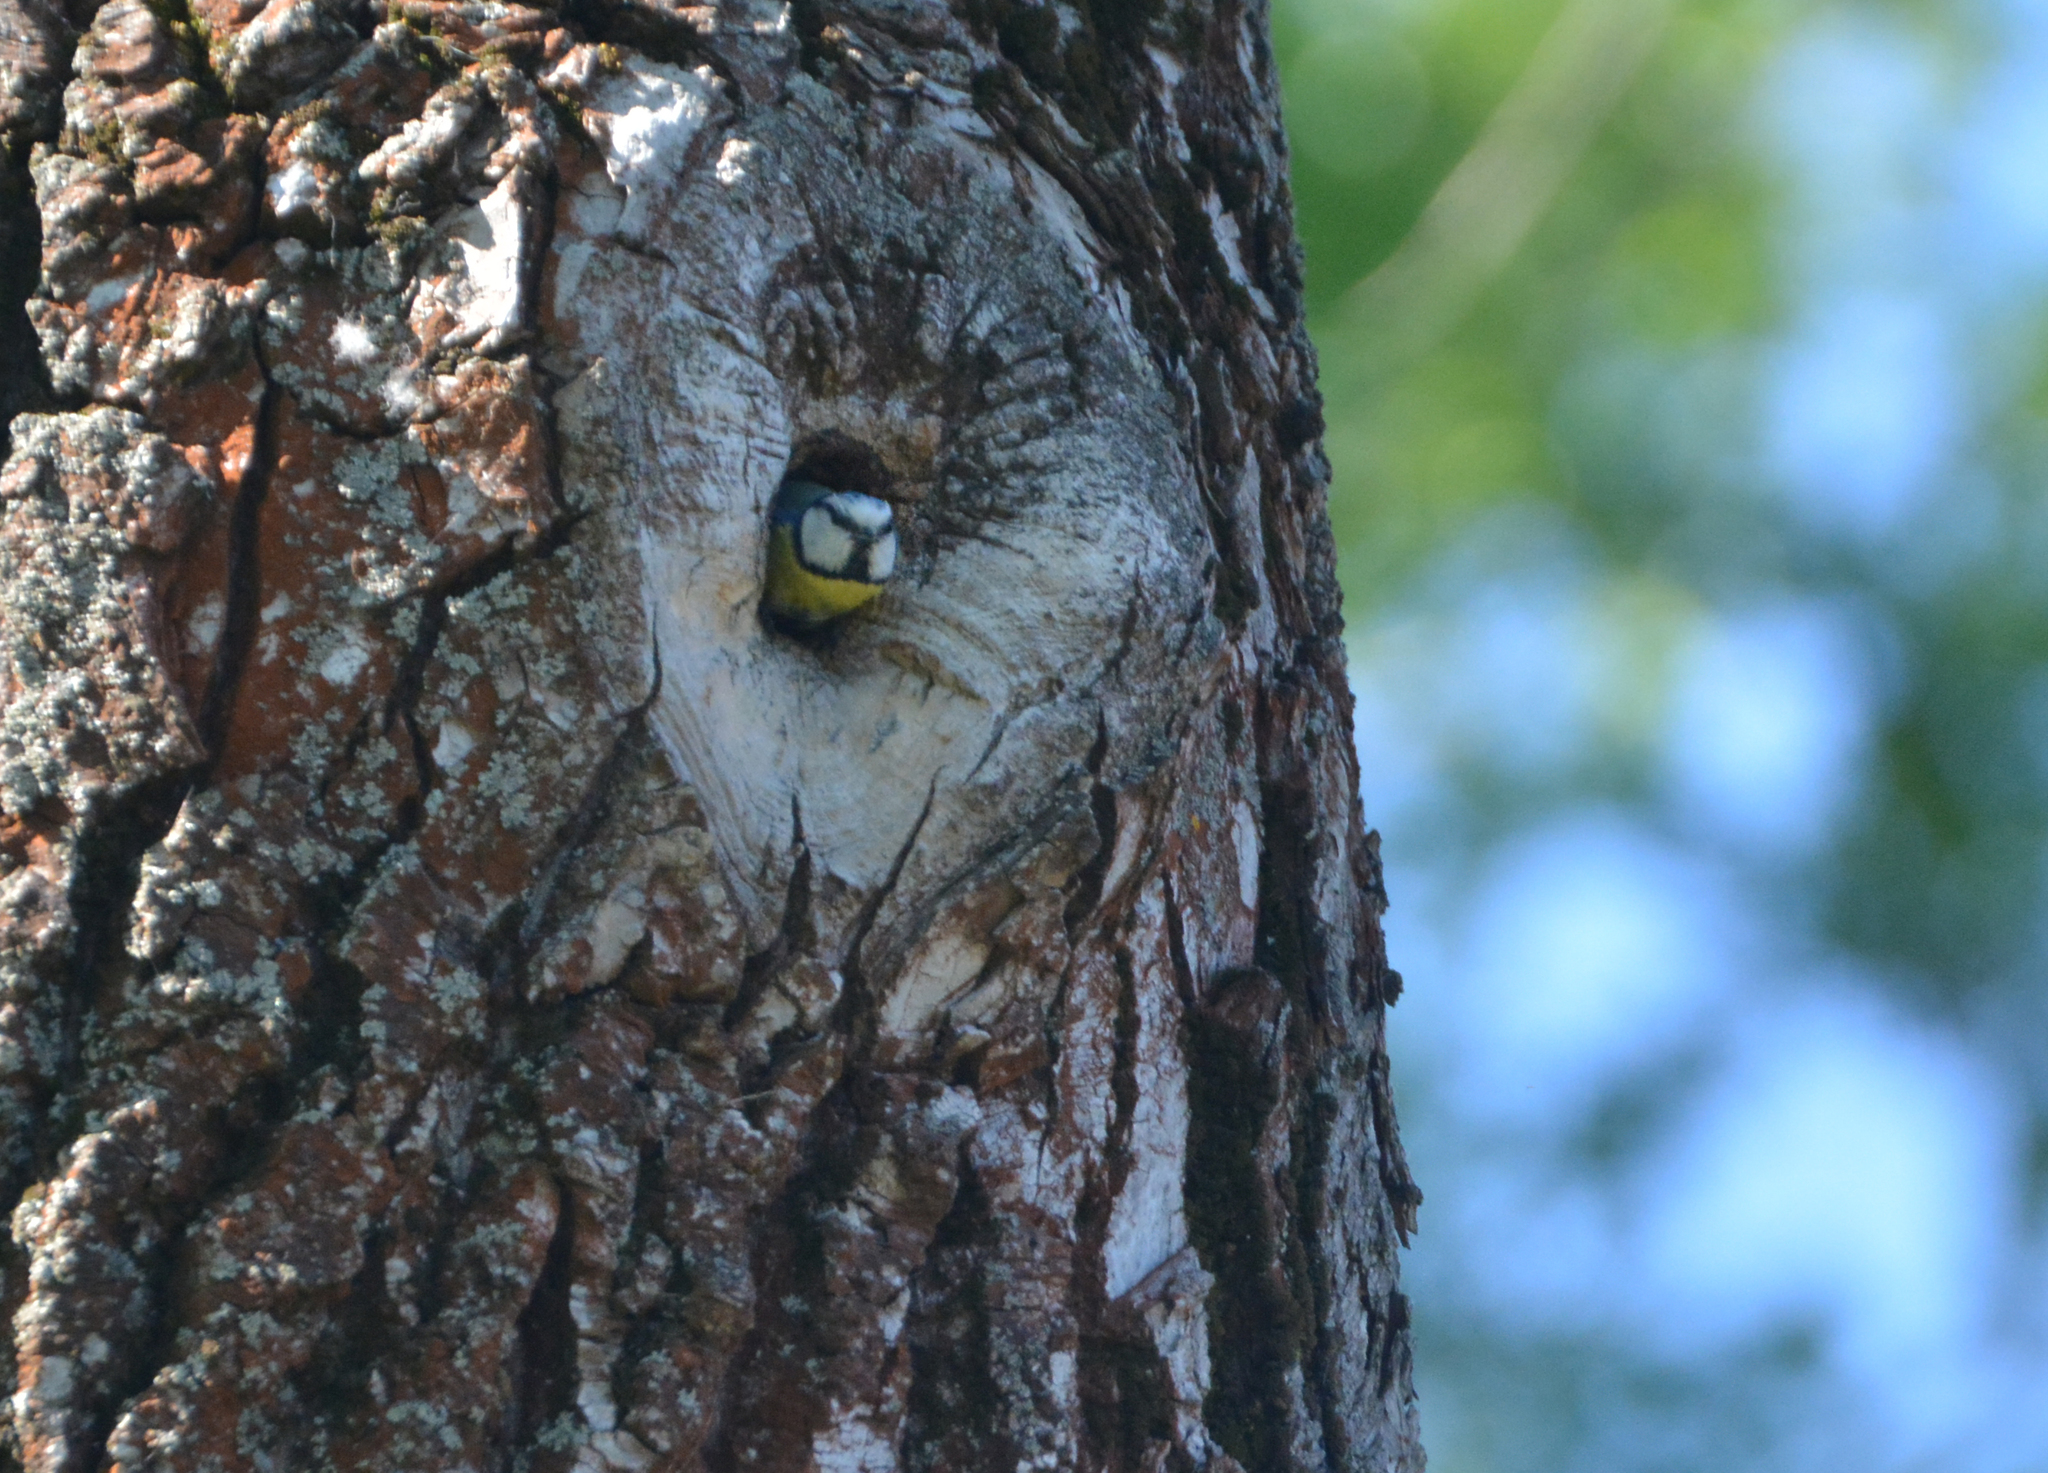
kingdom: Animalia
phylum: Chordata
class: Aves
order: Passeriformes
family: Paridae
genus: Cyanistes
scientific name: Cyanistes caeruleus
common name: Eurasian blue tit
